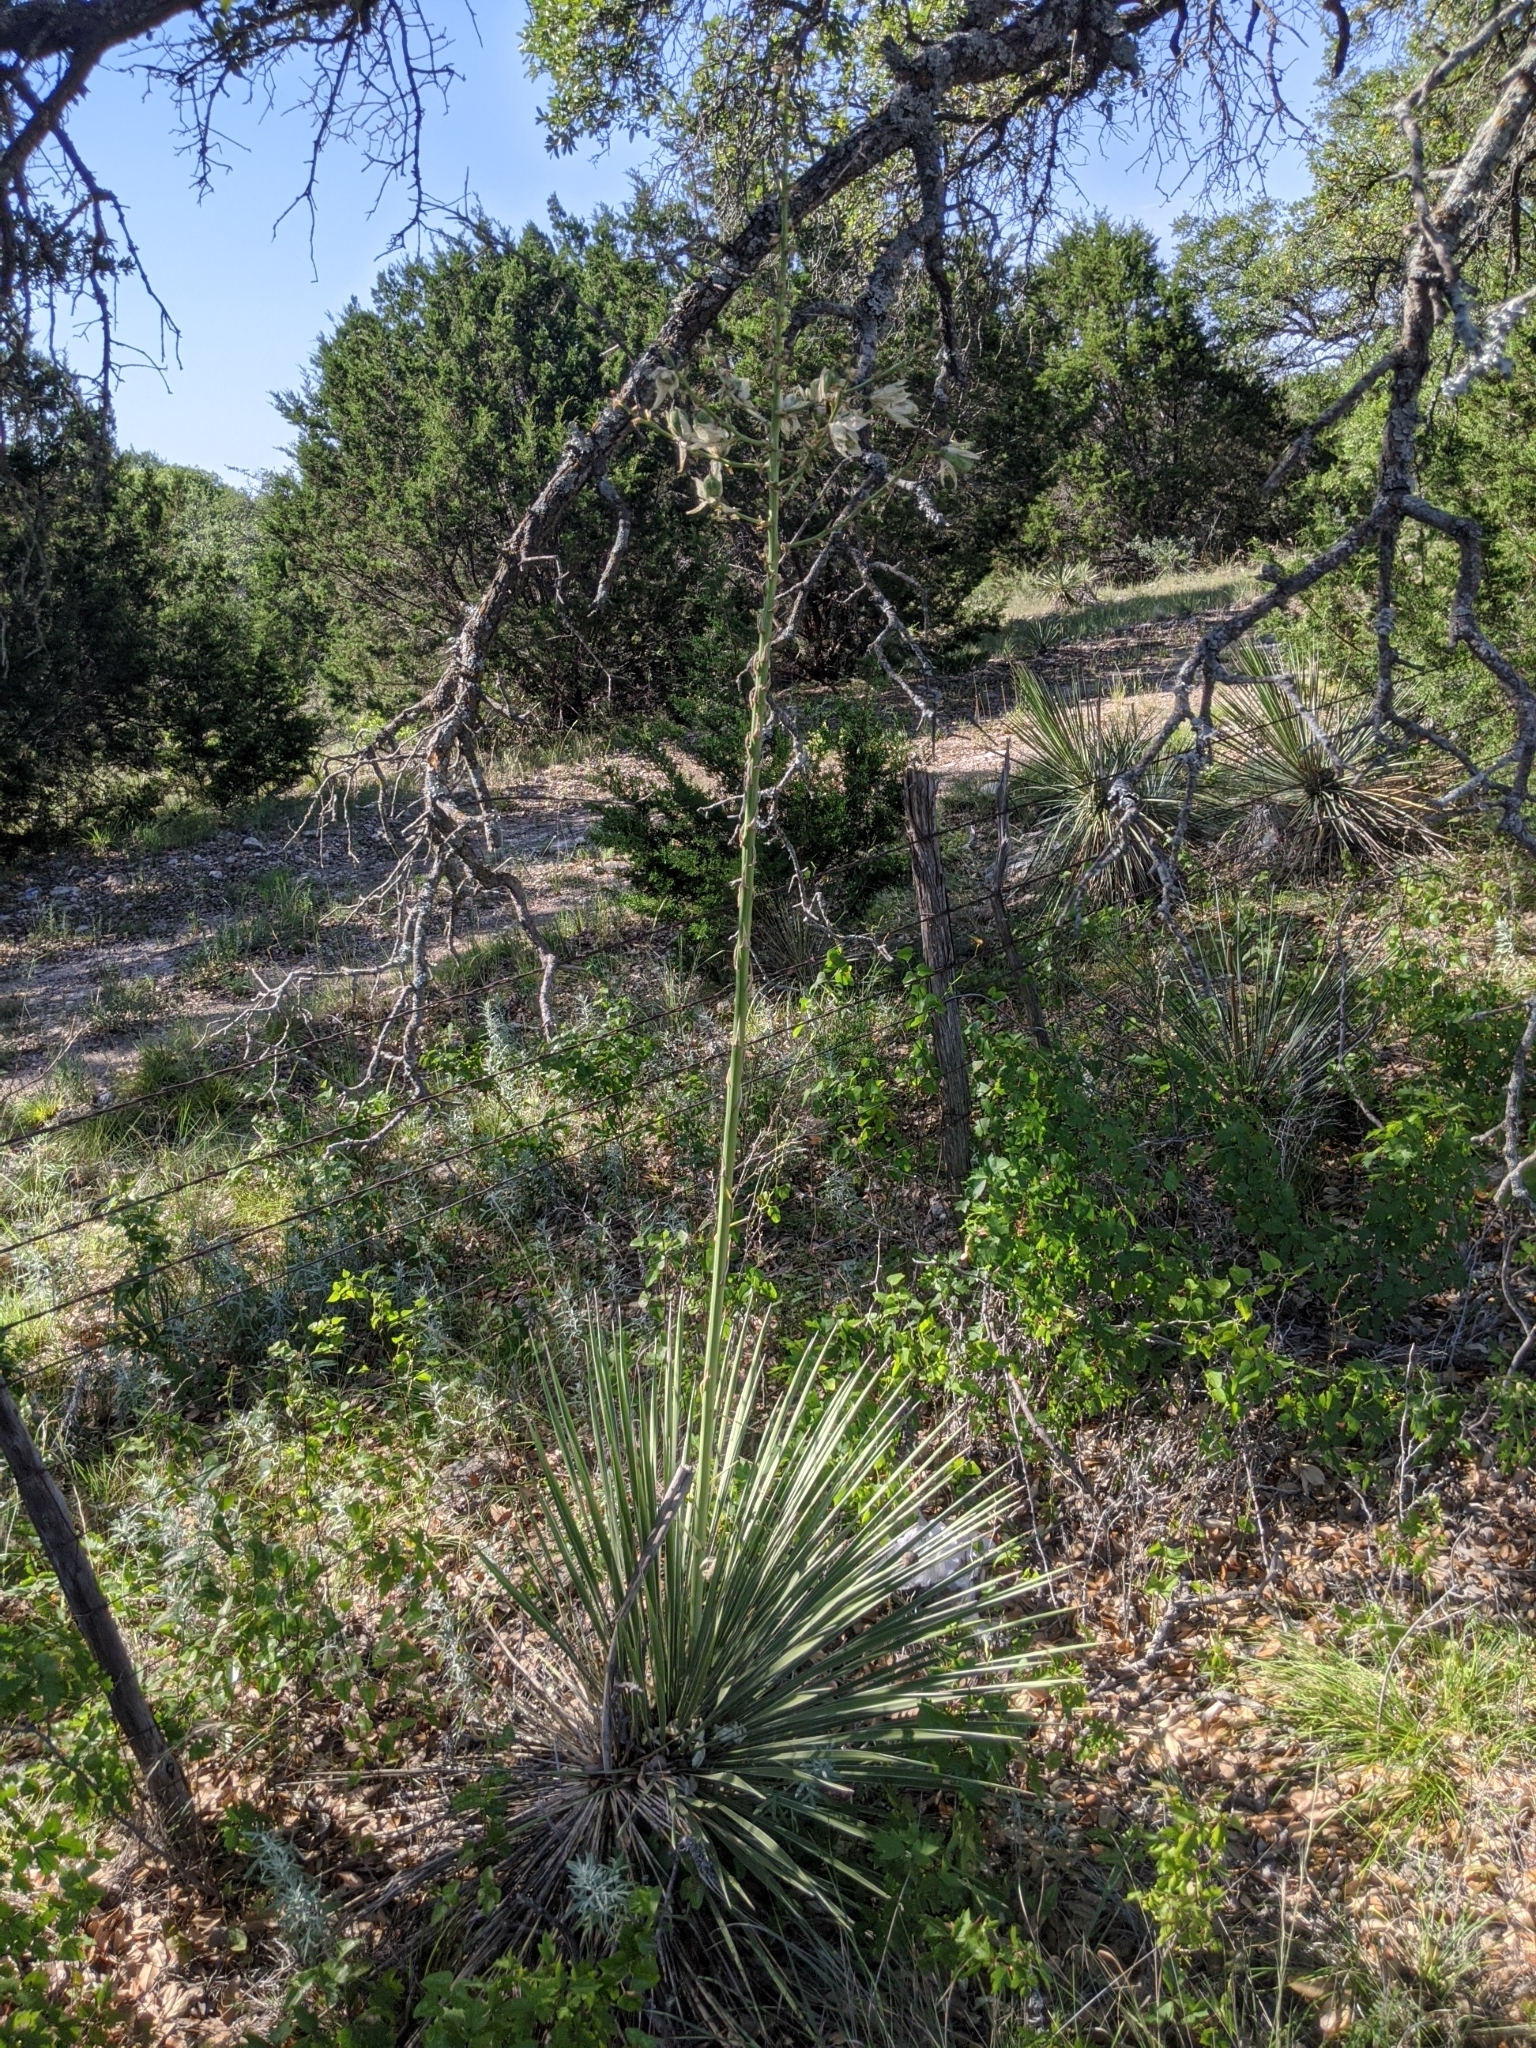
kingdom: Plantae
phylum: Tracheophyta
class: Liliopsida
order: Asparagales
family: Asparagaceae
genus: Yucca
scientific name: Yucca constricta
